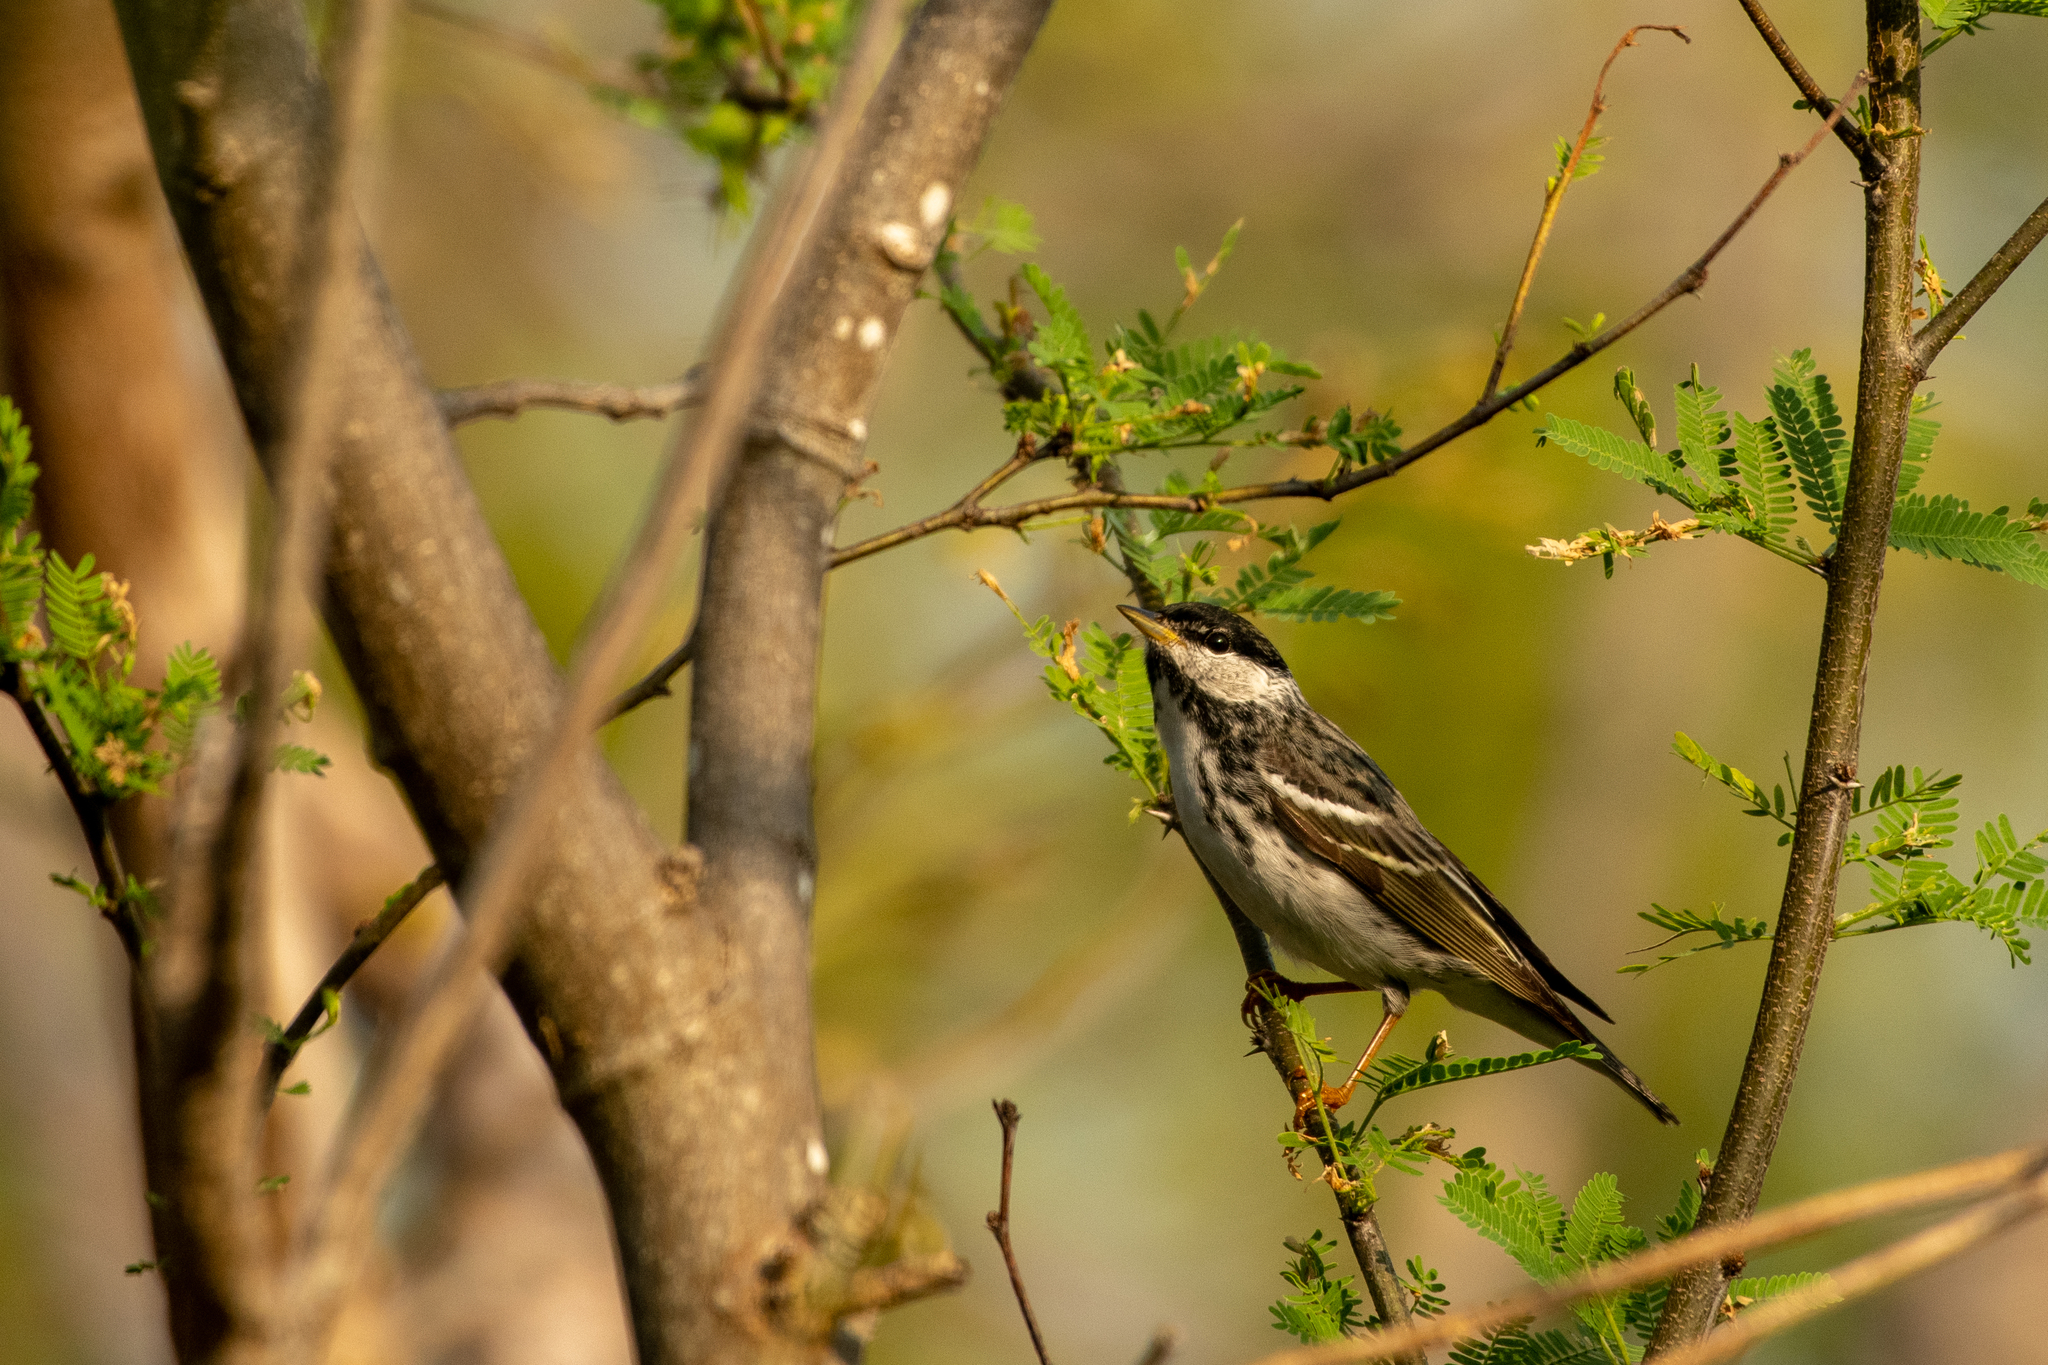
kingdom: Animalia
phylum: Chordata
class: Aves
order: Passeriformes
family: Parulidae
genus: Setophaga
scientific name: Setophaga striata
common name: Blackpoll warbler
